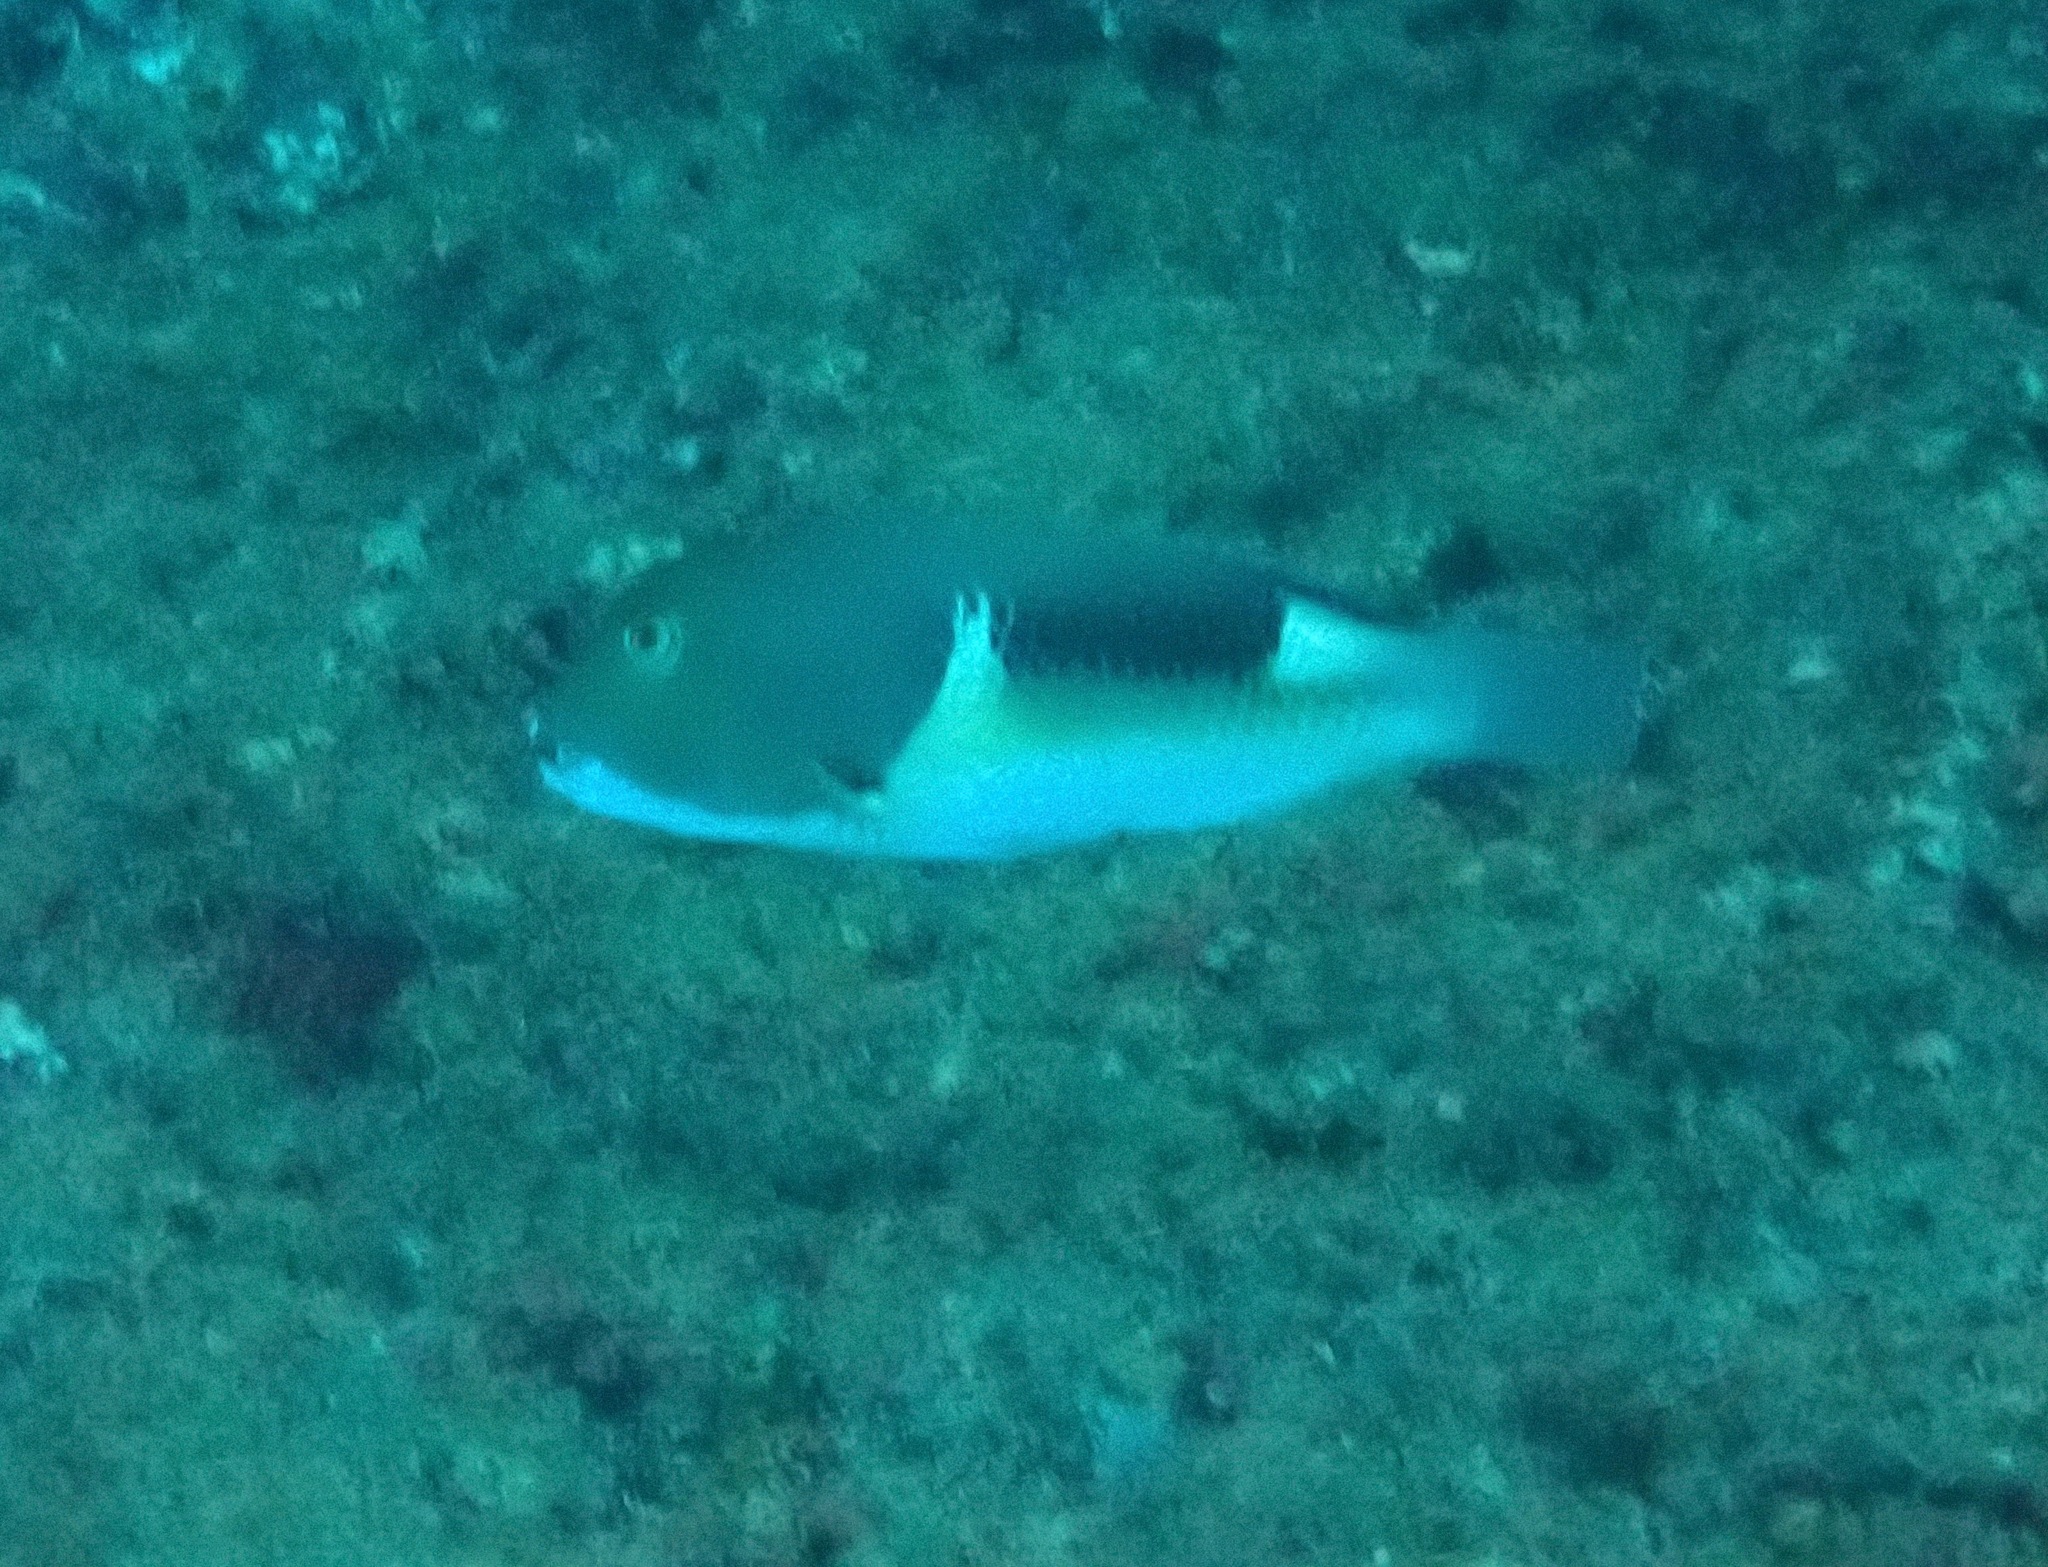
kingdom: Animalia
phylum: Chordata
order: Perciformes
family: Labridae
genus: Choerodon
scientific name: Choerodon anchorago
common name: Anchor tuskfish
